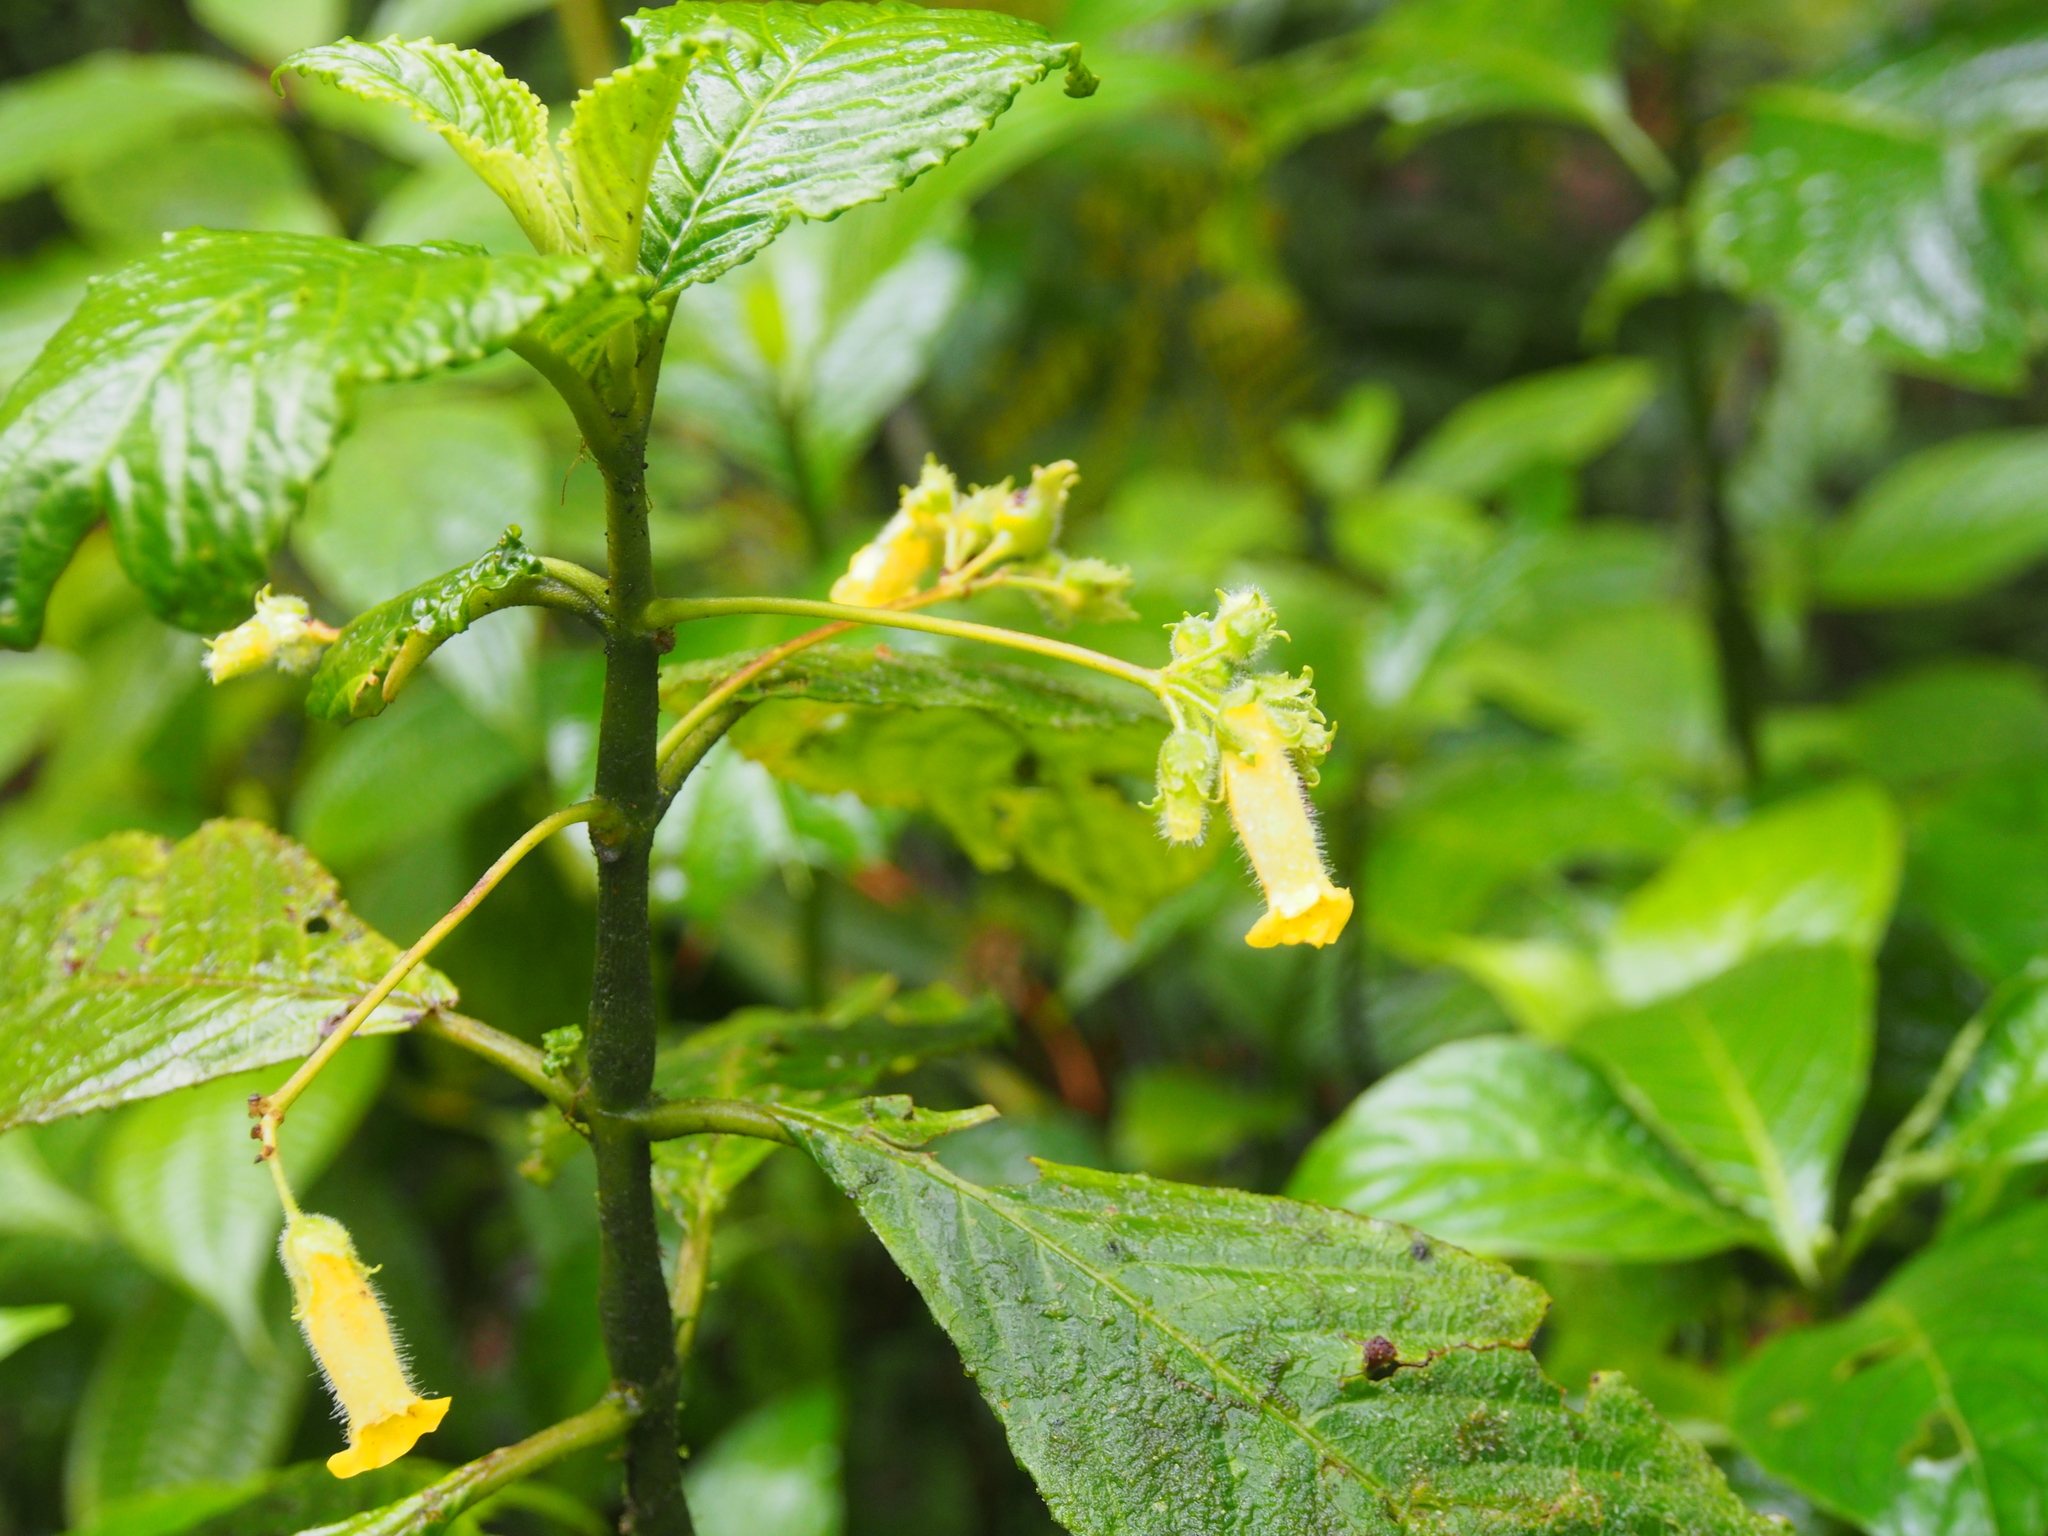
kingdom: Plantae
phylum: Tracheophyta
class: Magnoliopsida
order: Lamiales
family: Gesneriaceae
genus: Gasteranthus
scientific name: Gasteranthus wendlandianus
